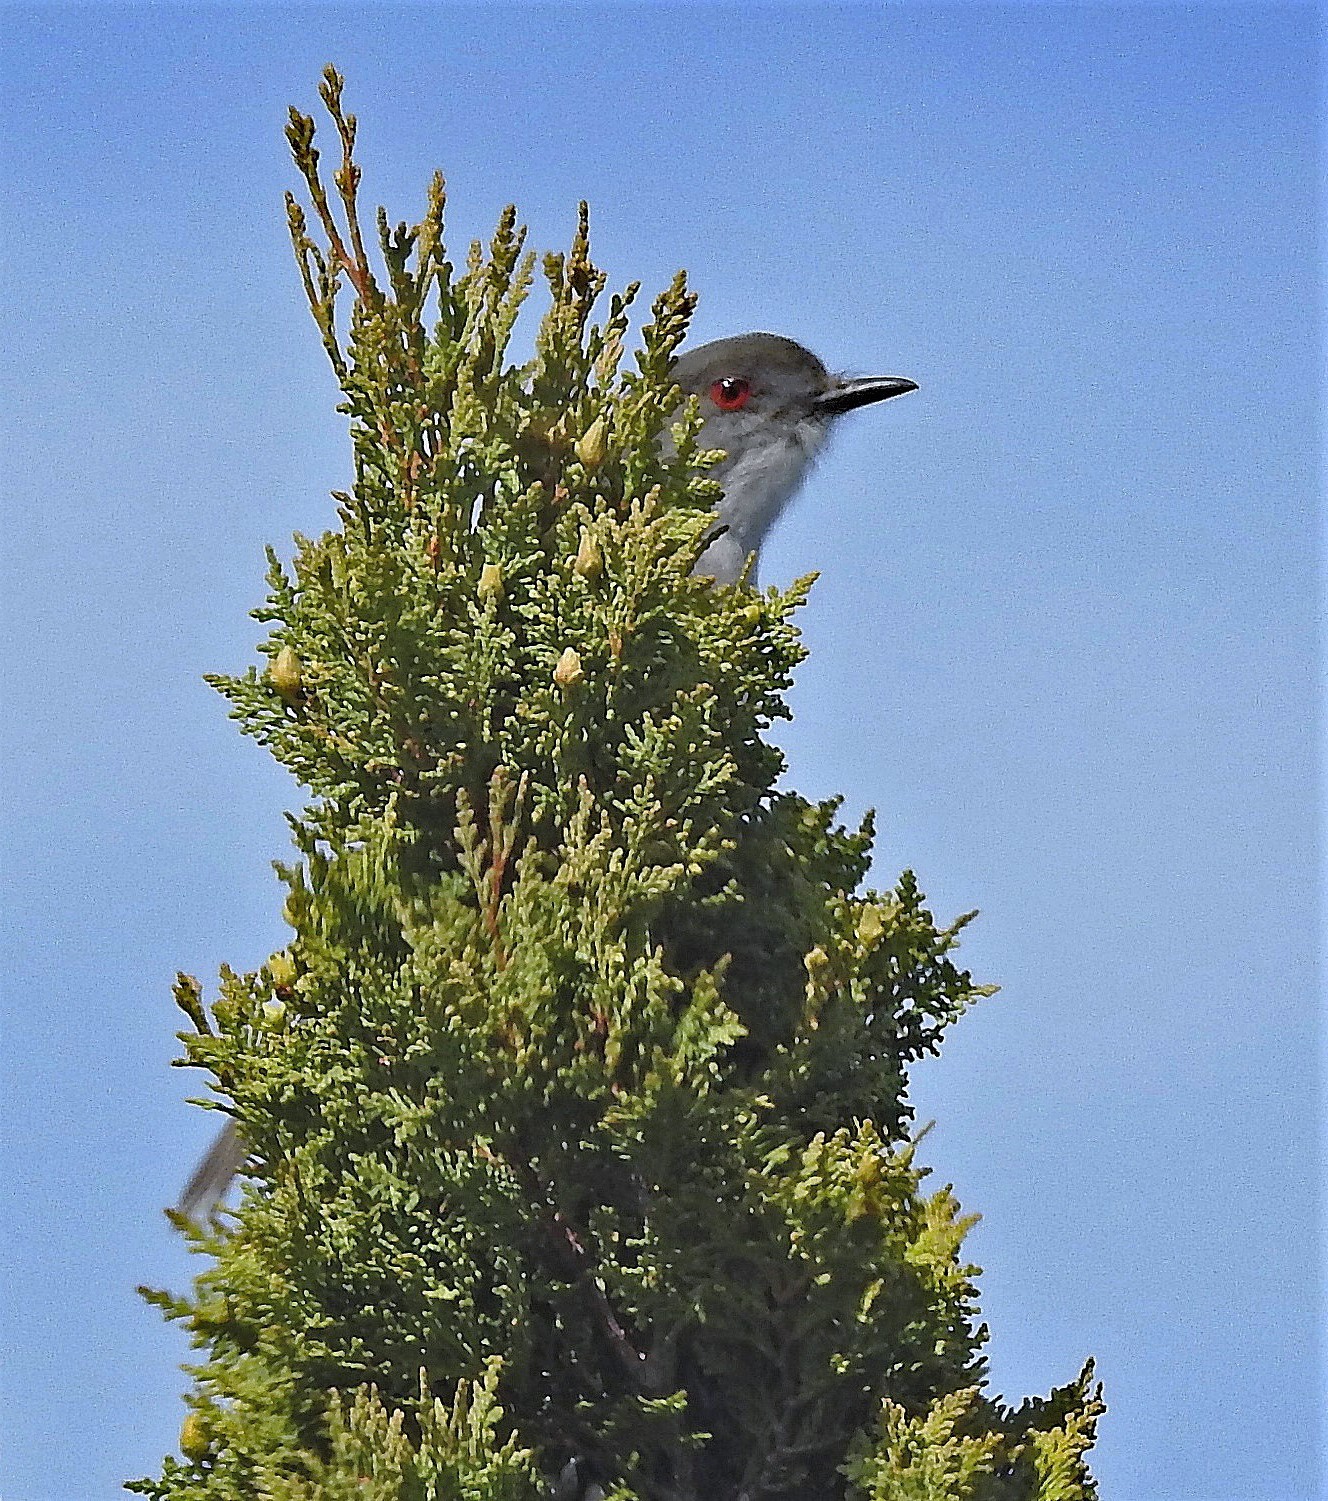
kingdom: Animalia
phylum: Chordata
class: Aves
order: Passeriformes
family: Tyrannidae
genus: Xolmis
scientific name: Xolmis pyrope
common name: Fire-eyed diucon
